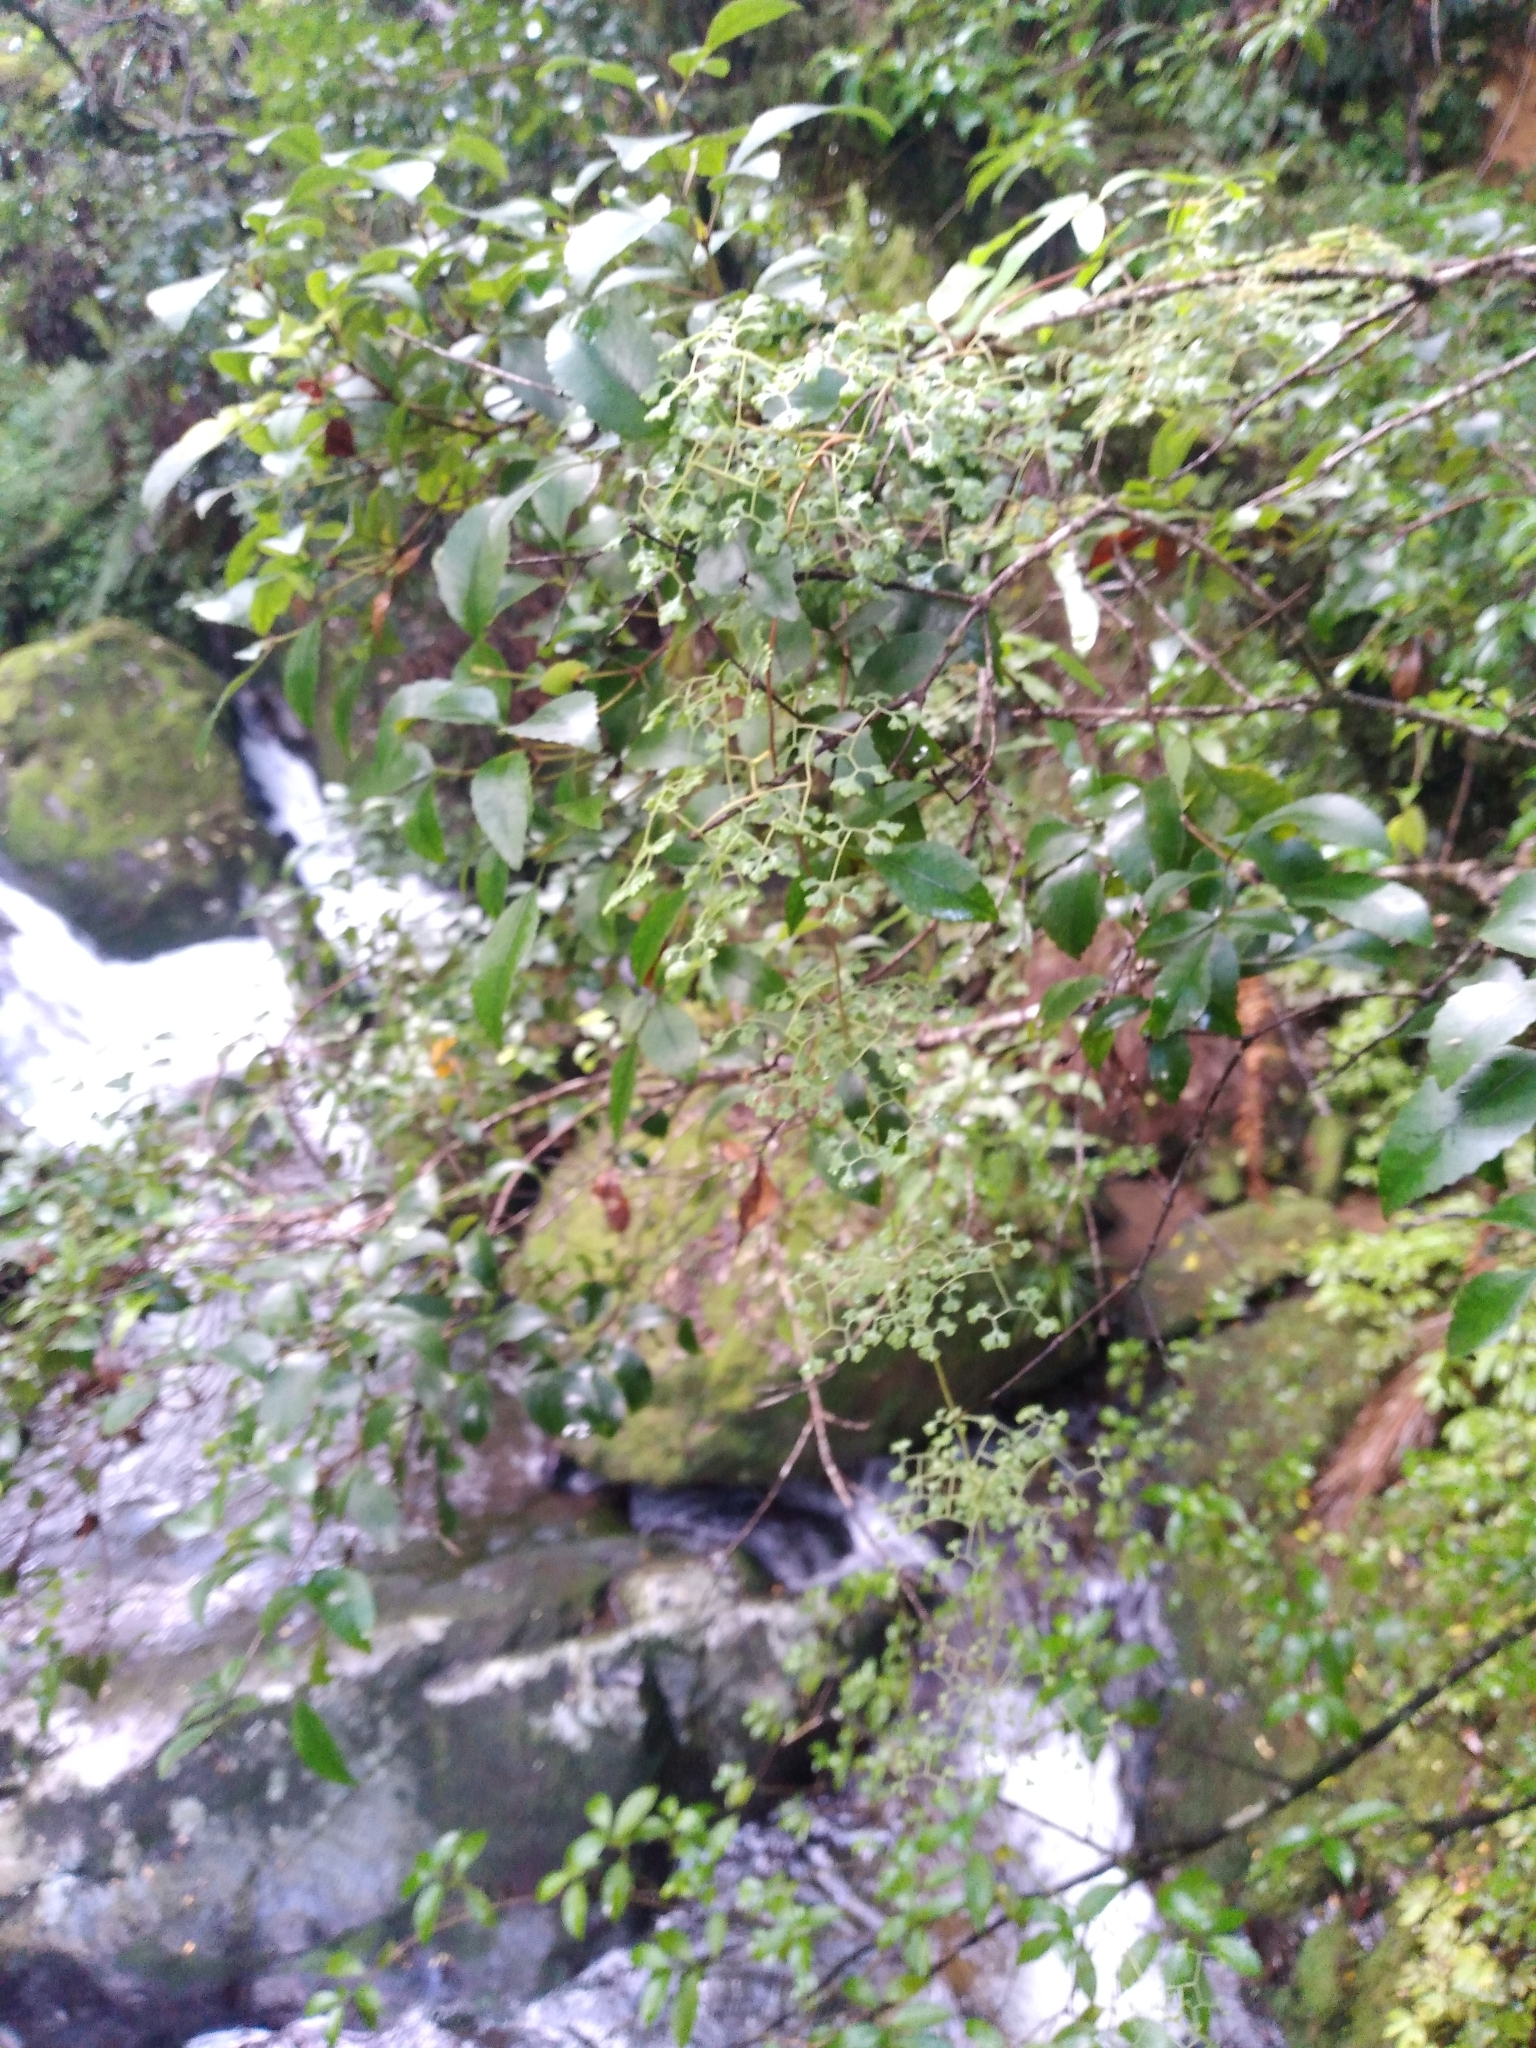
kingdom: Plantae
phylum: Tracheophyta
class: Polypodiopsida
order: Schizaeales
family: Lygodiaceae
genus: Lygodium
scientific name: Lygodium articulatum
